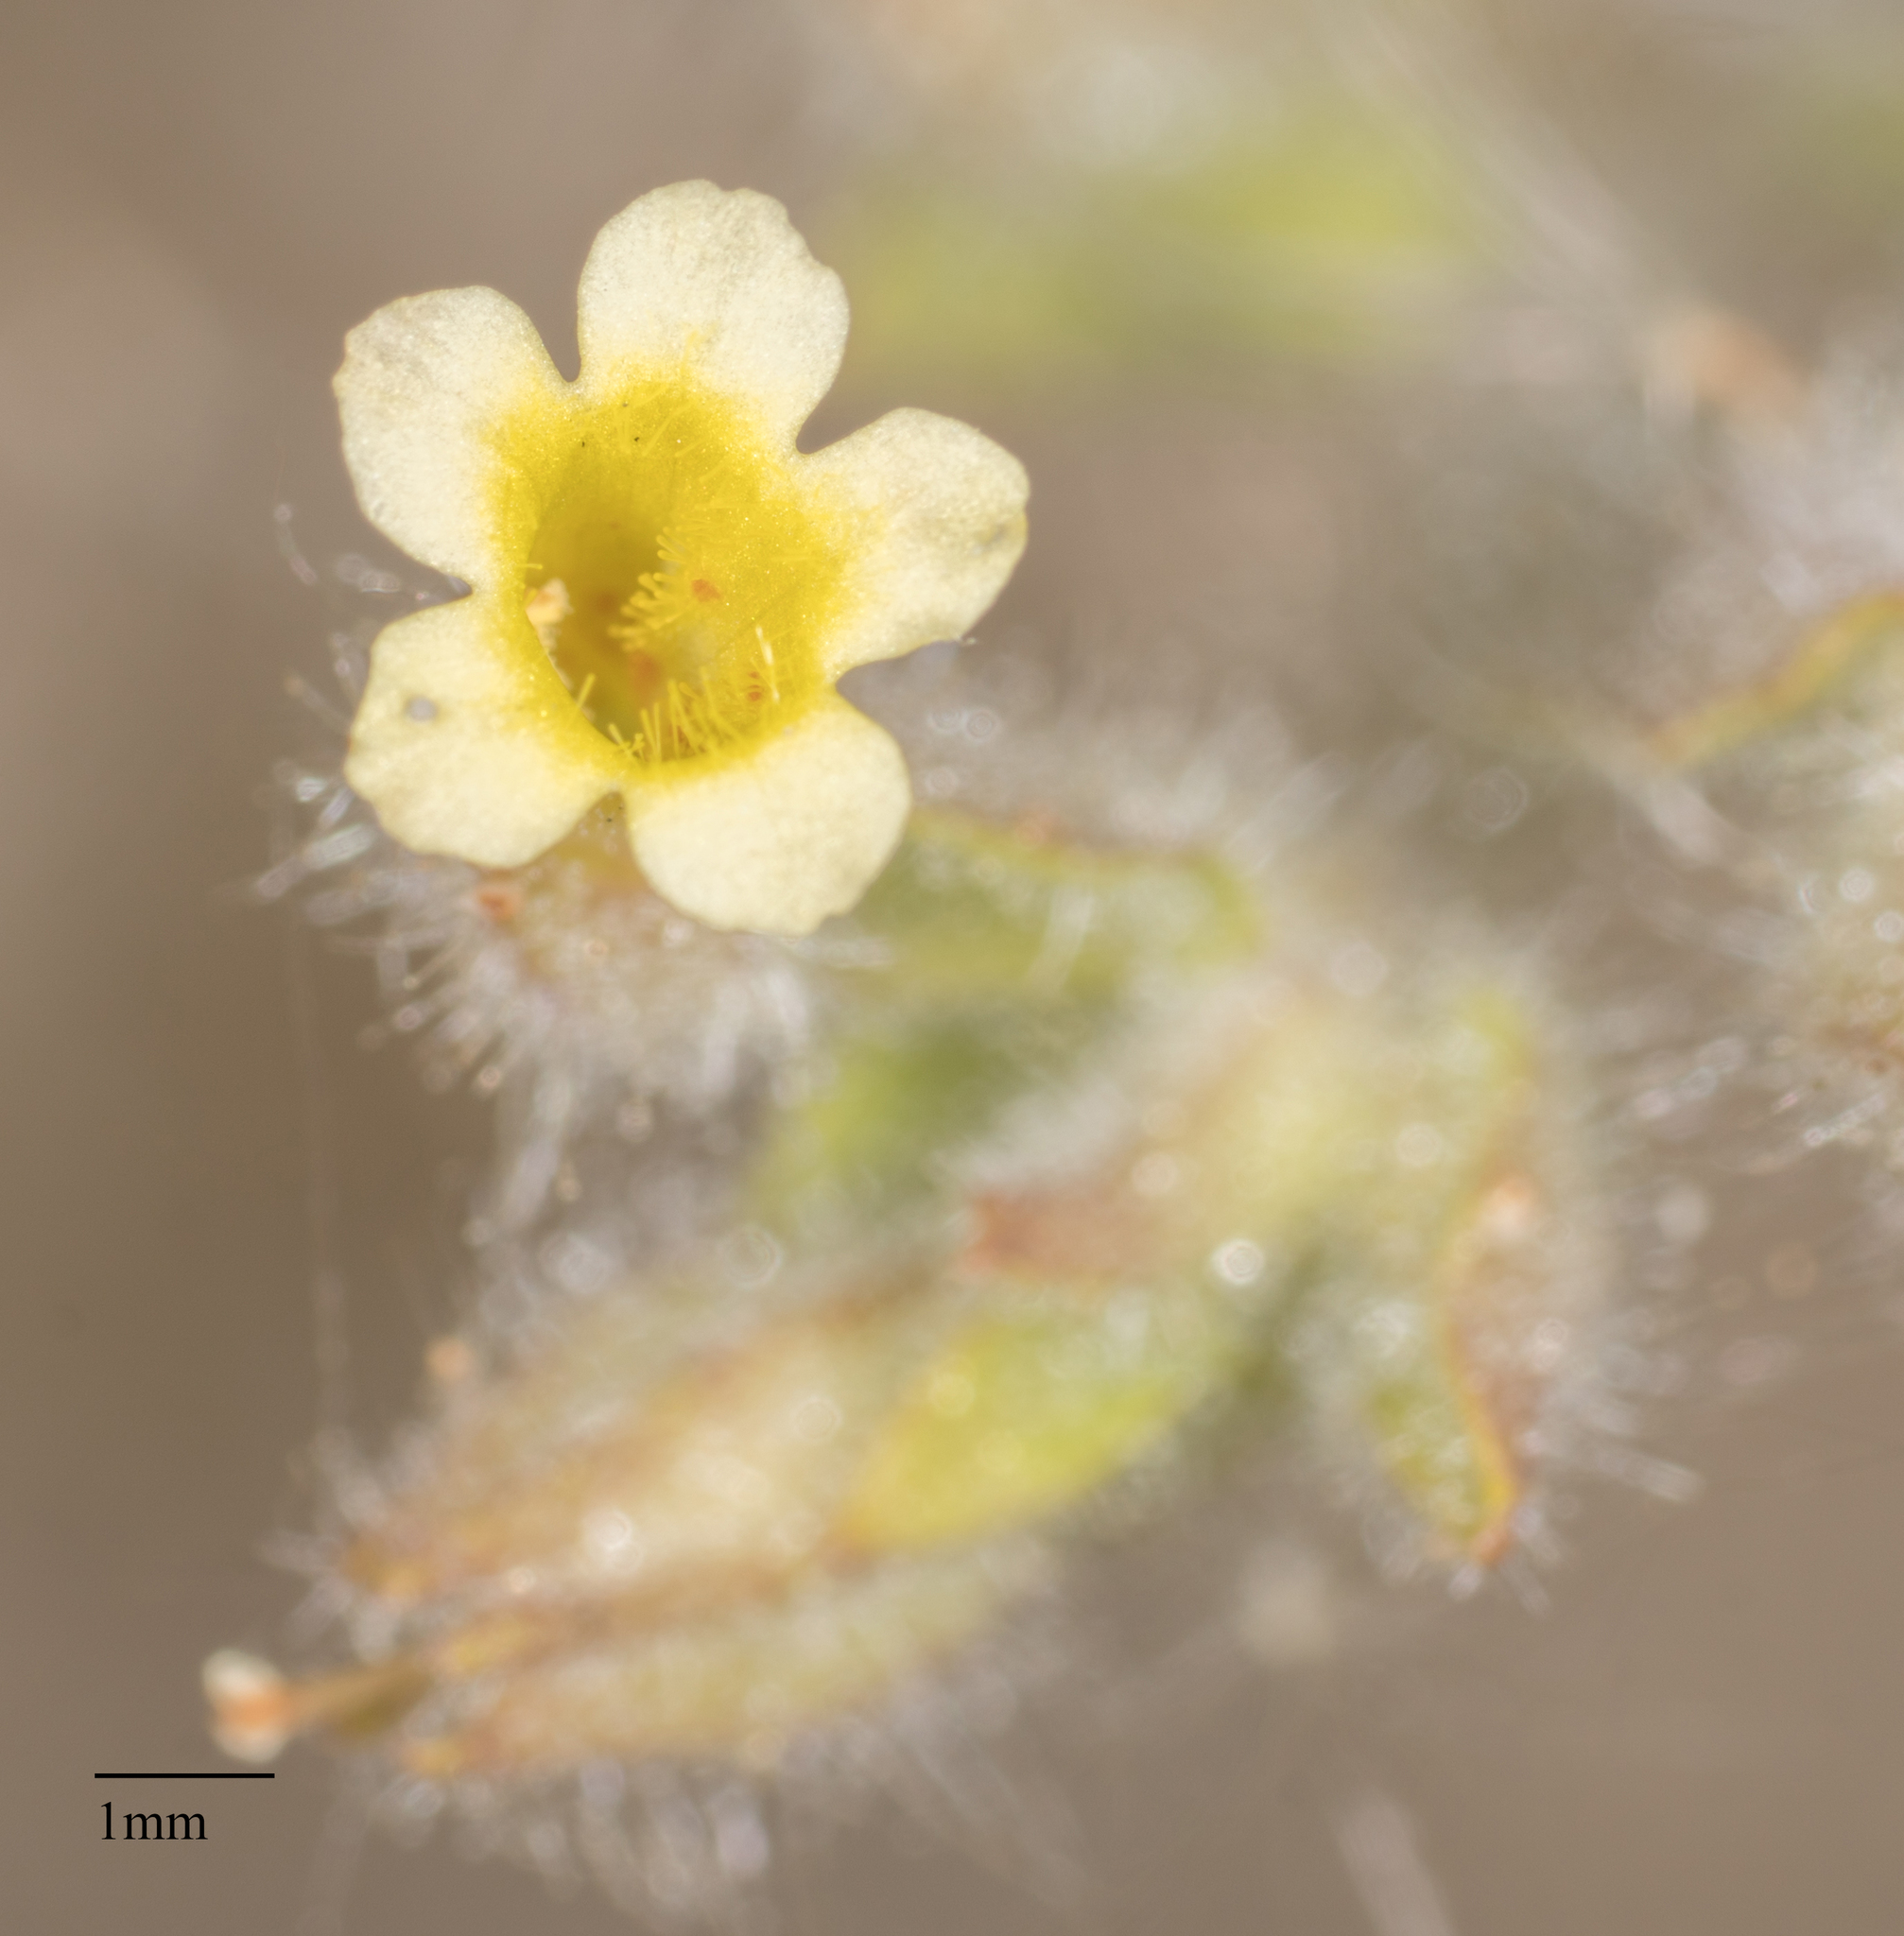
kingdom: Plantae
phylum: Tracheophyta
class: Magnoliopsida
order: Lamiales
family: Phrymaceae
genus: Erythranthe
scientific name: Erythranthe floribunda
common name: Floriferous monkeyflower
